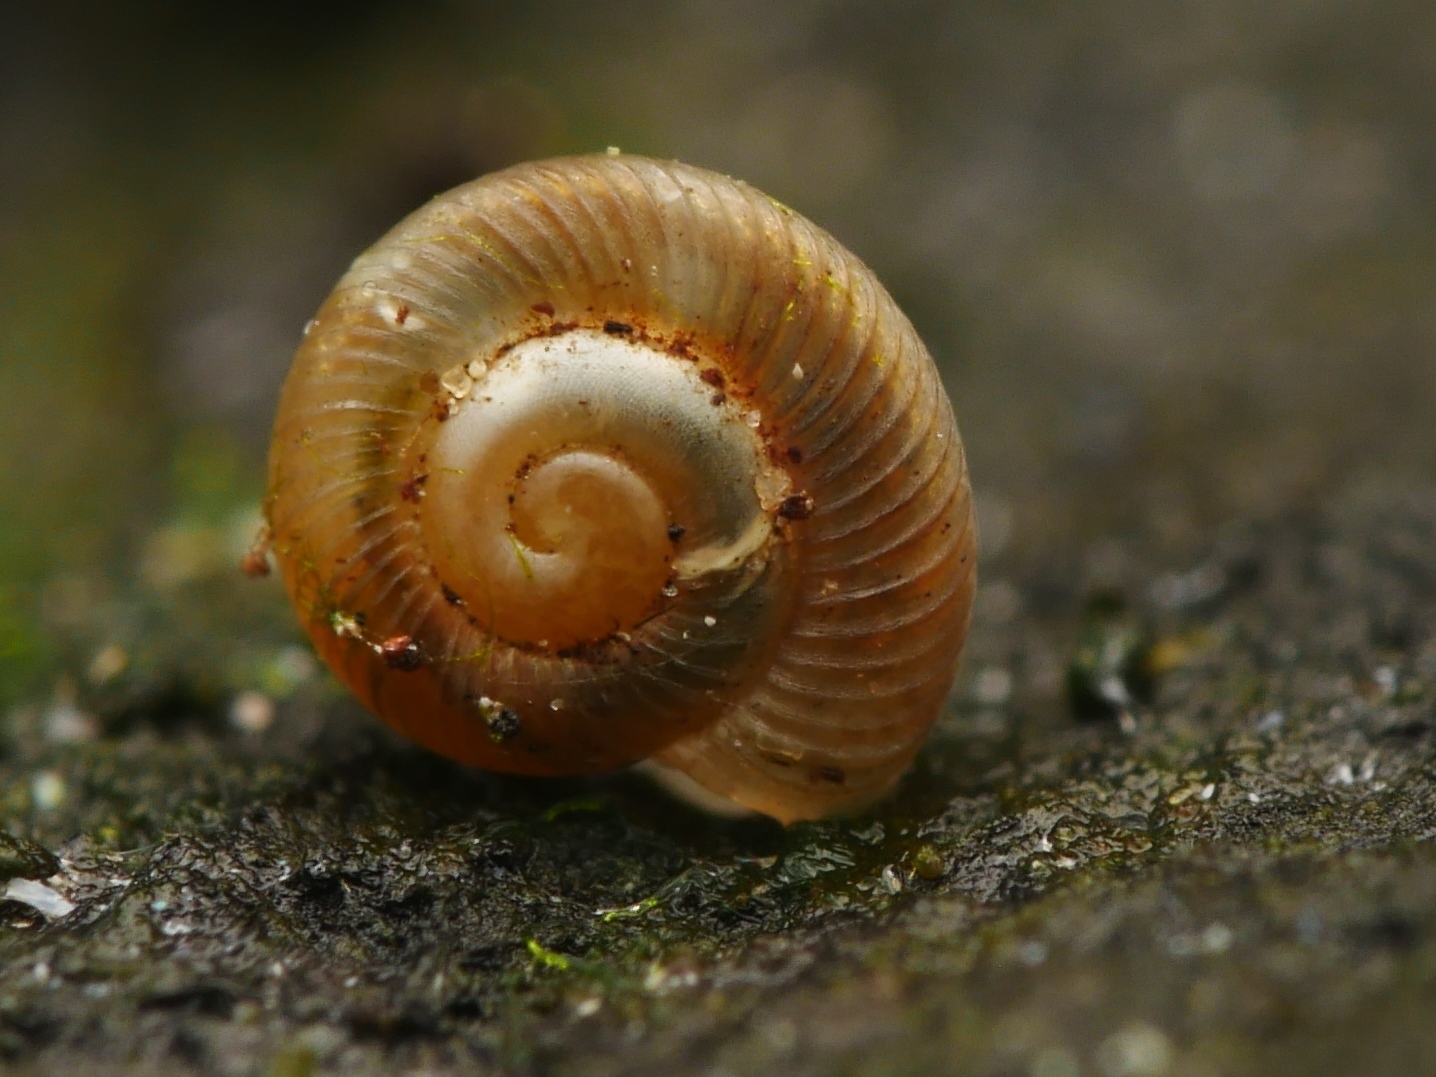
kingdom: Animalia
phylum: Mollusca
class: Gastropoda
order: Stylommatophora
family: Discidae
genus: Discus
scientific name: Discus rotundatus
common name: Rounded snail
